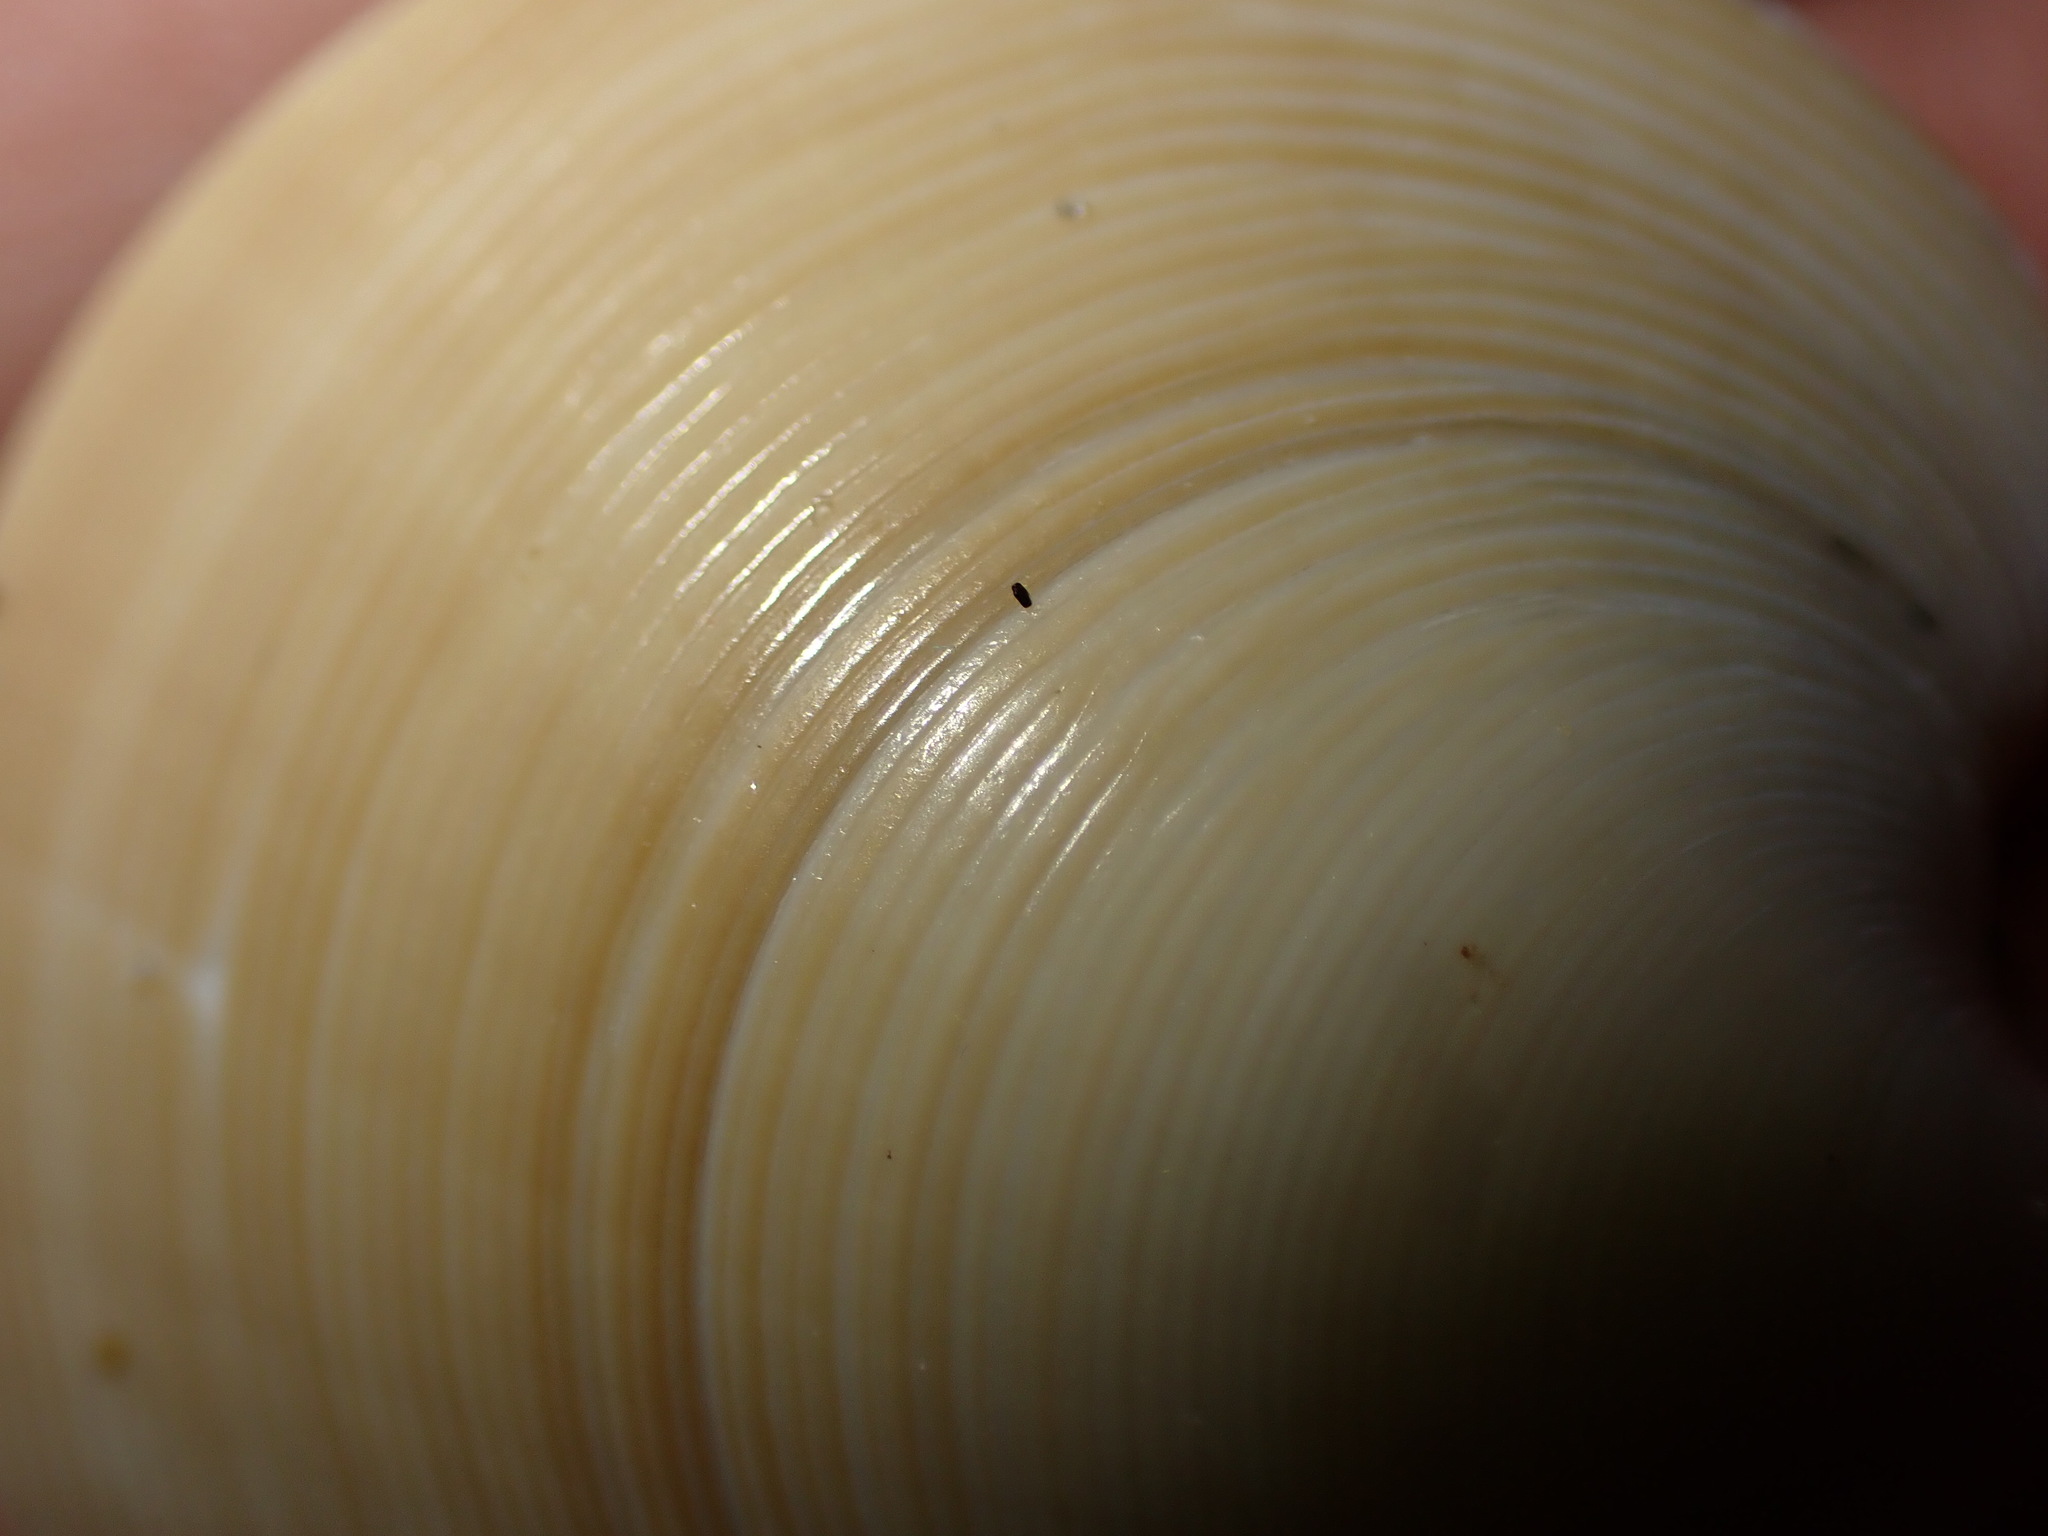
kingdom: Animalia
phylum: Mollusca
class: Bivalvia
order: Venerida
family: Veneridae
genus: Dosinia
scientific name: Dosinia subrosea
